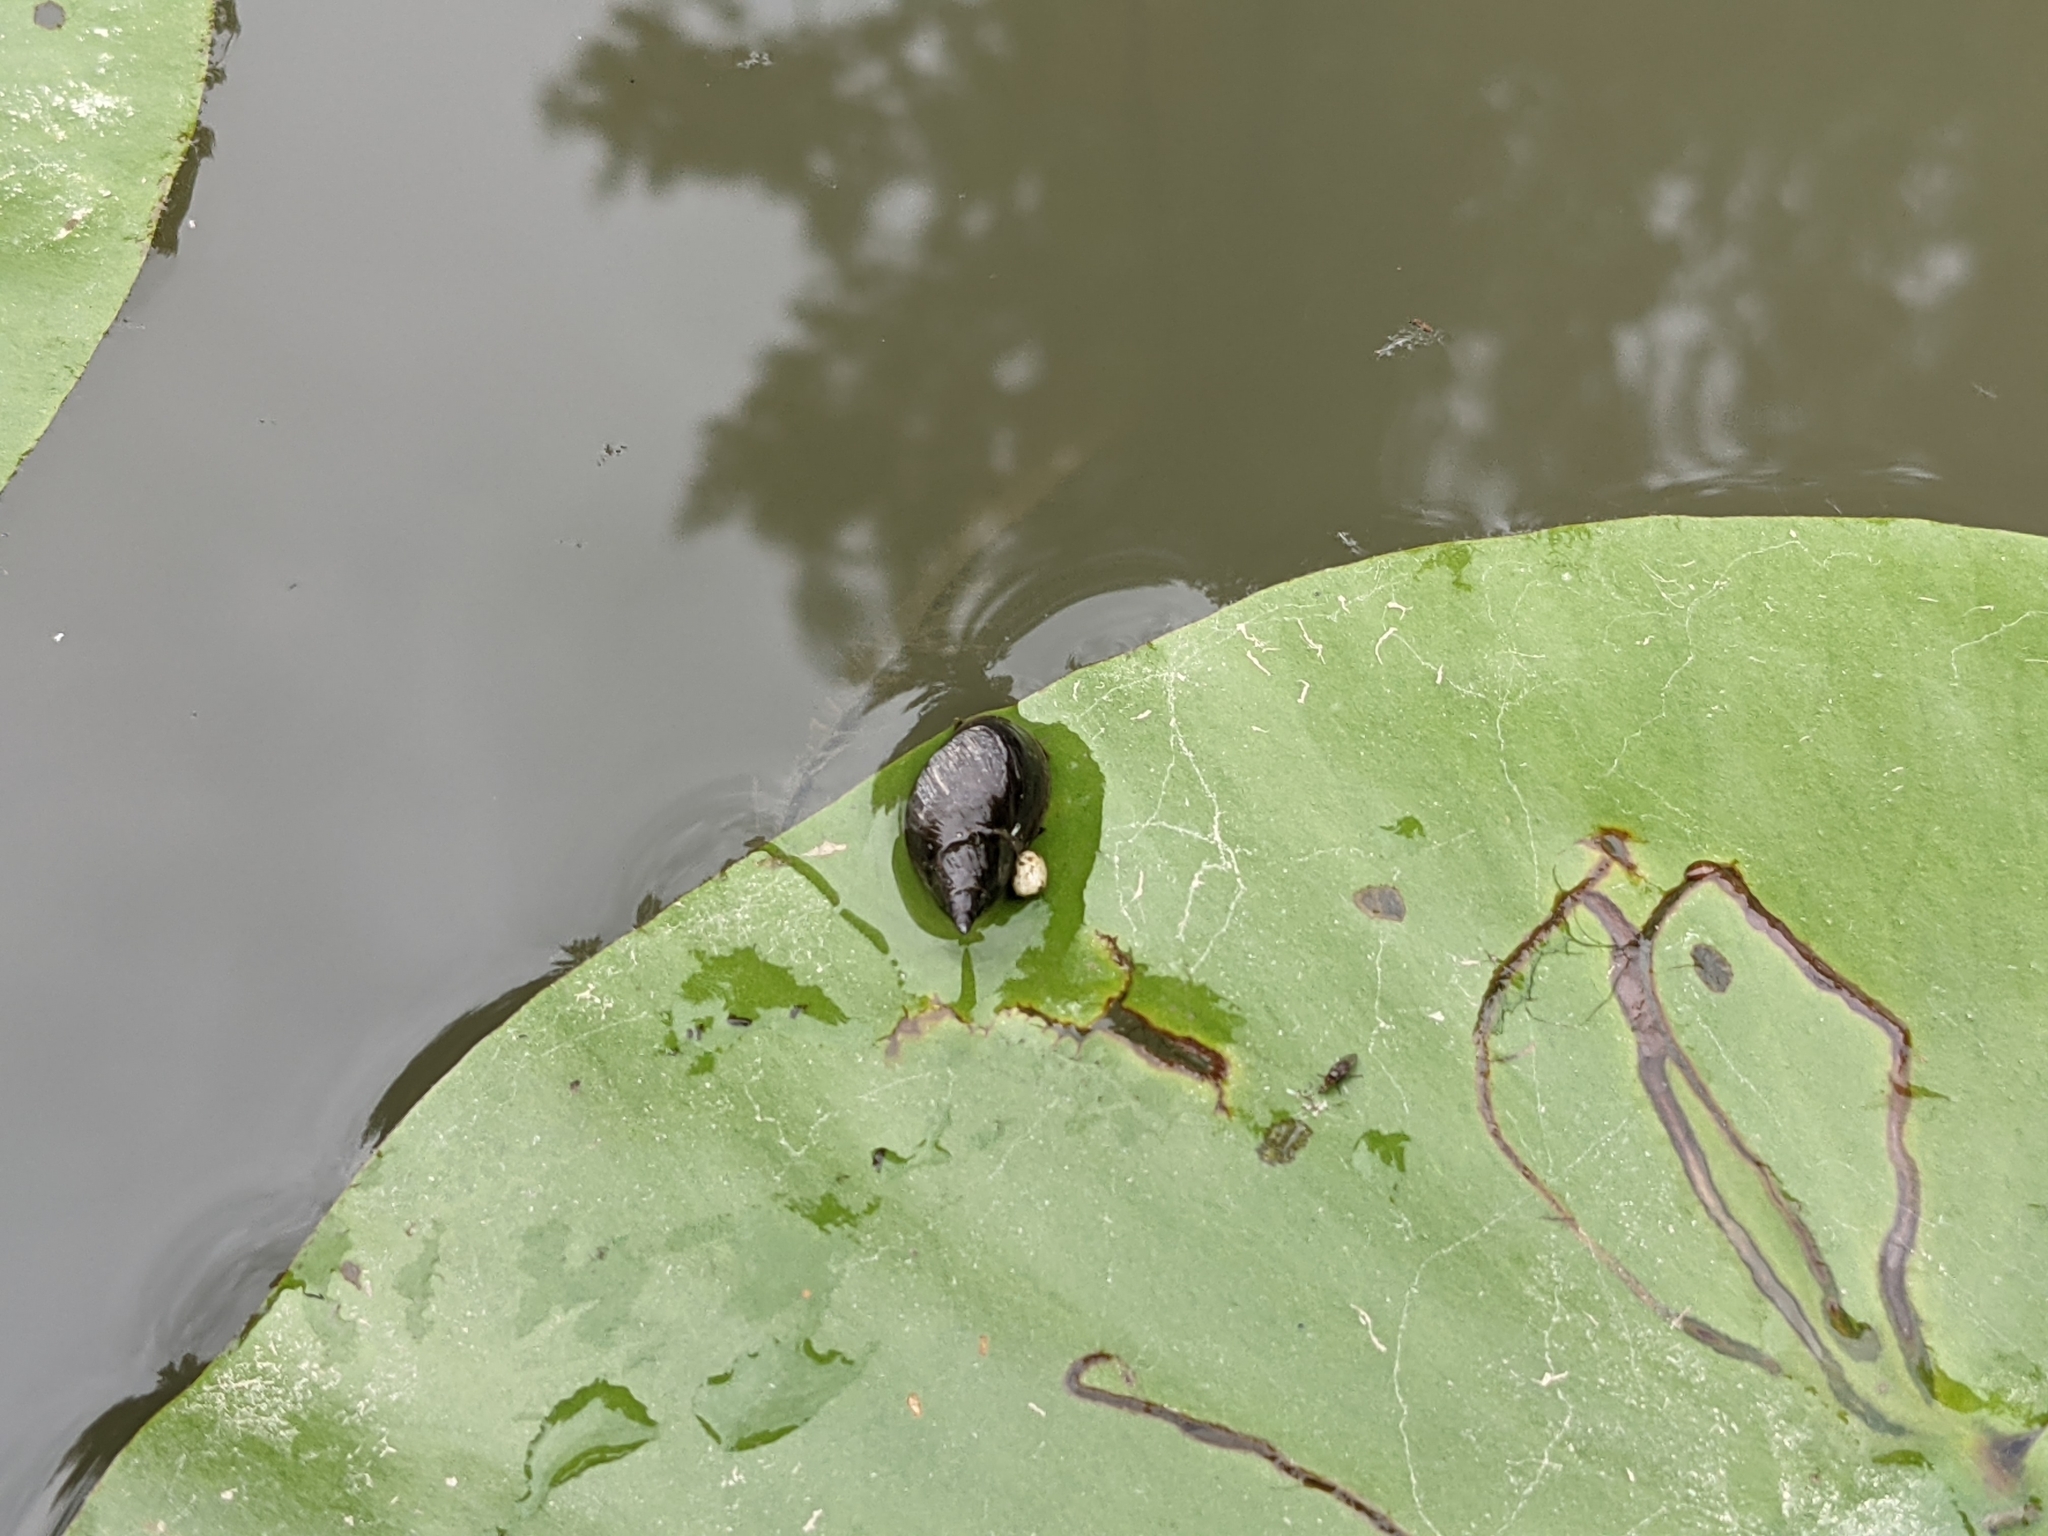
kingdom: Animalia
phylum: Mollusca
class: Gastropoda
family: Lymnaeidae
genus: Lymnaea
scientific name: Lymnaea stagnalis
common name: Great pond snail
